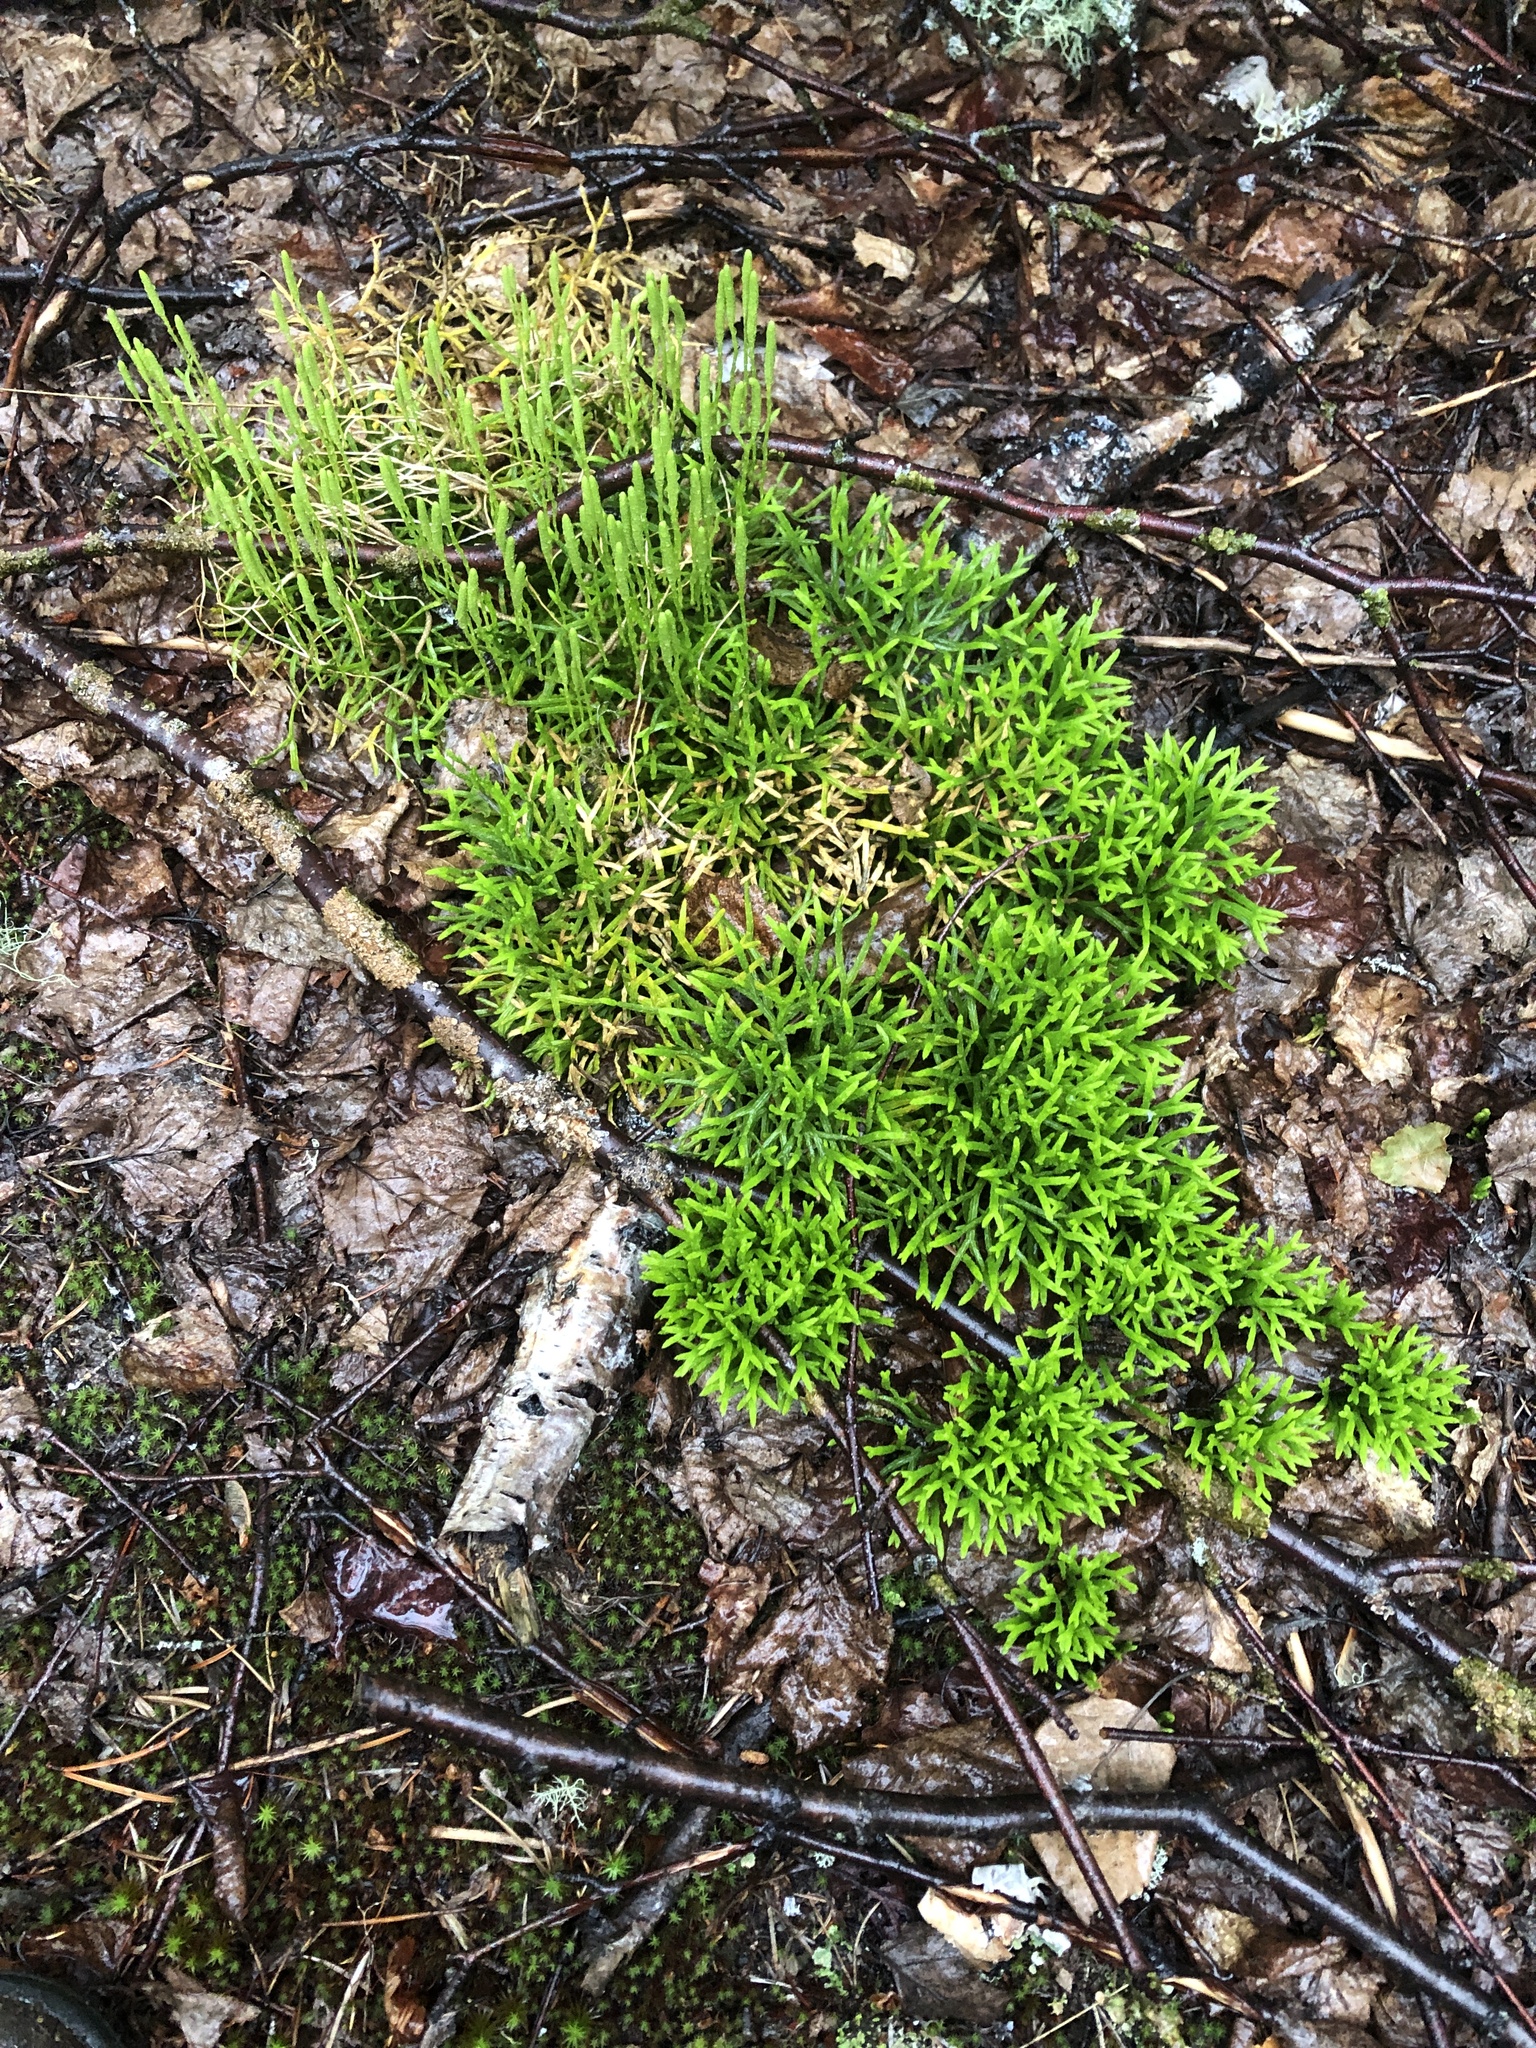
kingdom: Plantae
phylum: Tracheophyta
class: Lycopodiopsida
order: Lycopodiales
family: Lycopodiaceae
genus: Diphasiastrum
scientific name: Diphasiastrum complanatum
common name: Northern running-pine
